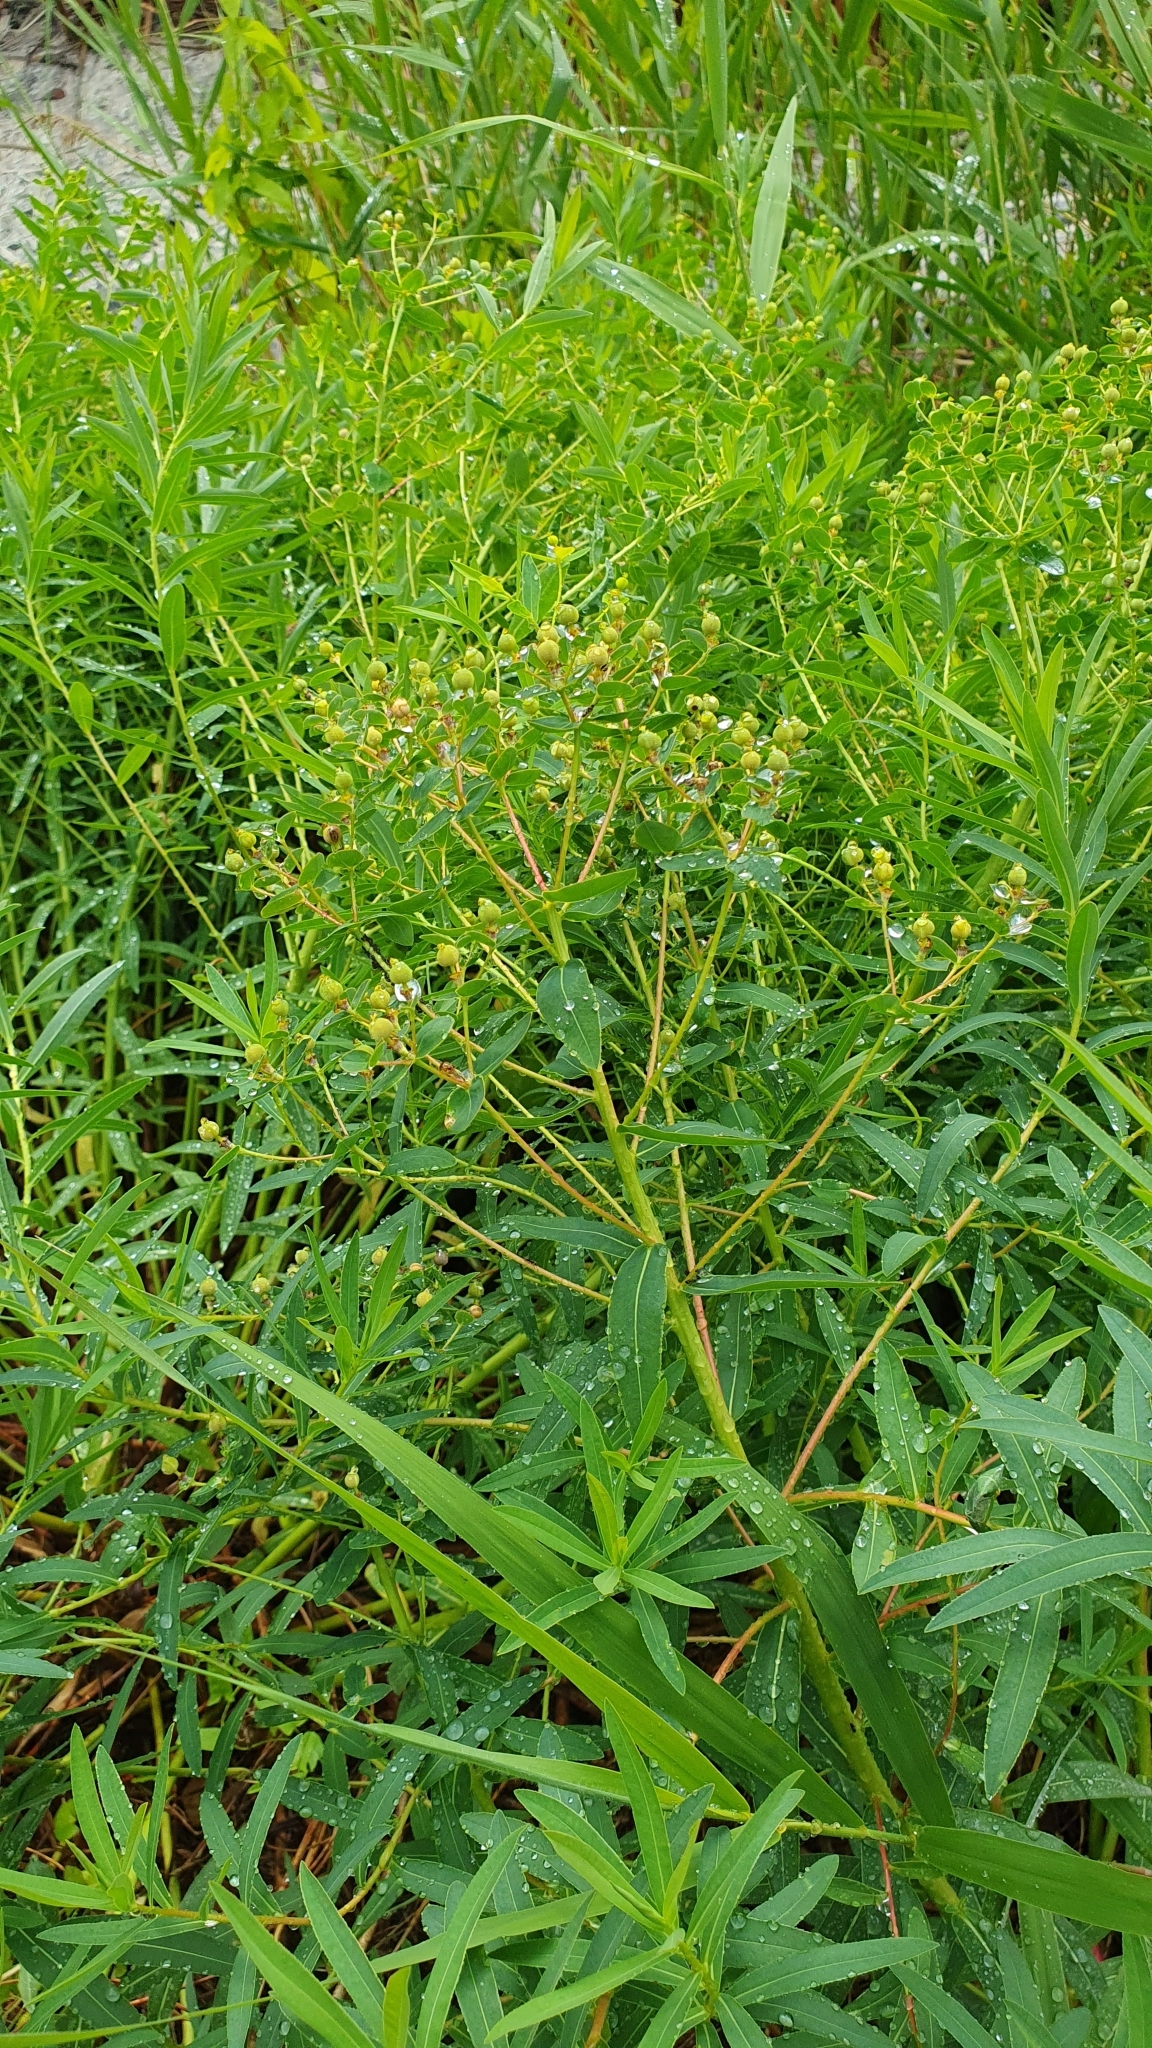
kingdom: Plantae
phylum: Tracheophyta
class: Magnoliopsida
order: Malpighiales
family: Euphorbiaceae
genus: Euphorbia
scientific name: Euphorbia palustris
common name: Marsh spurge
